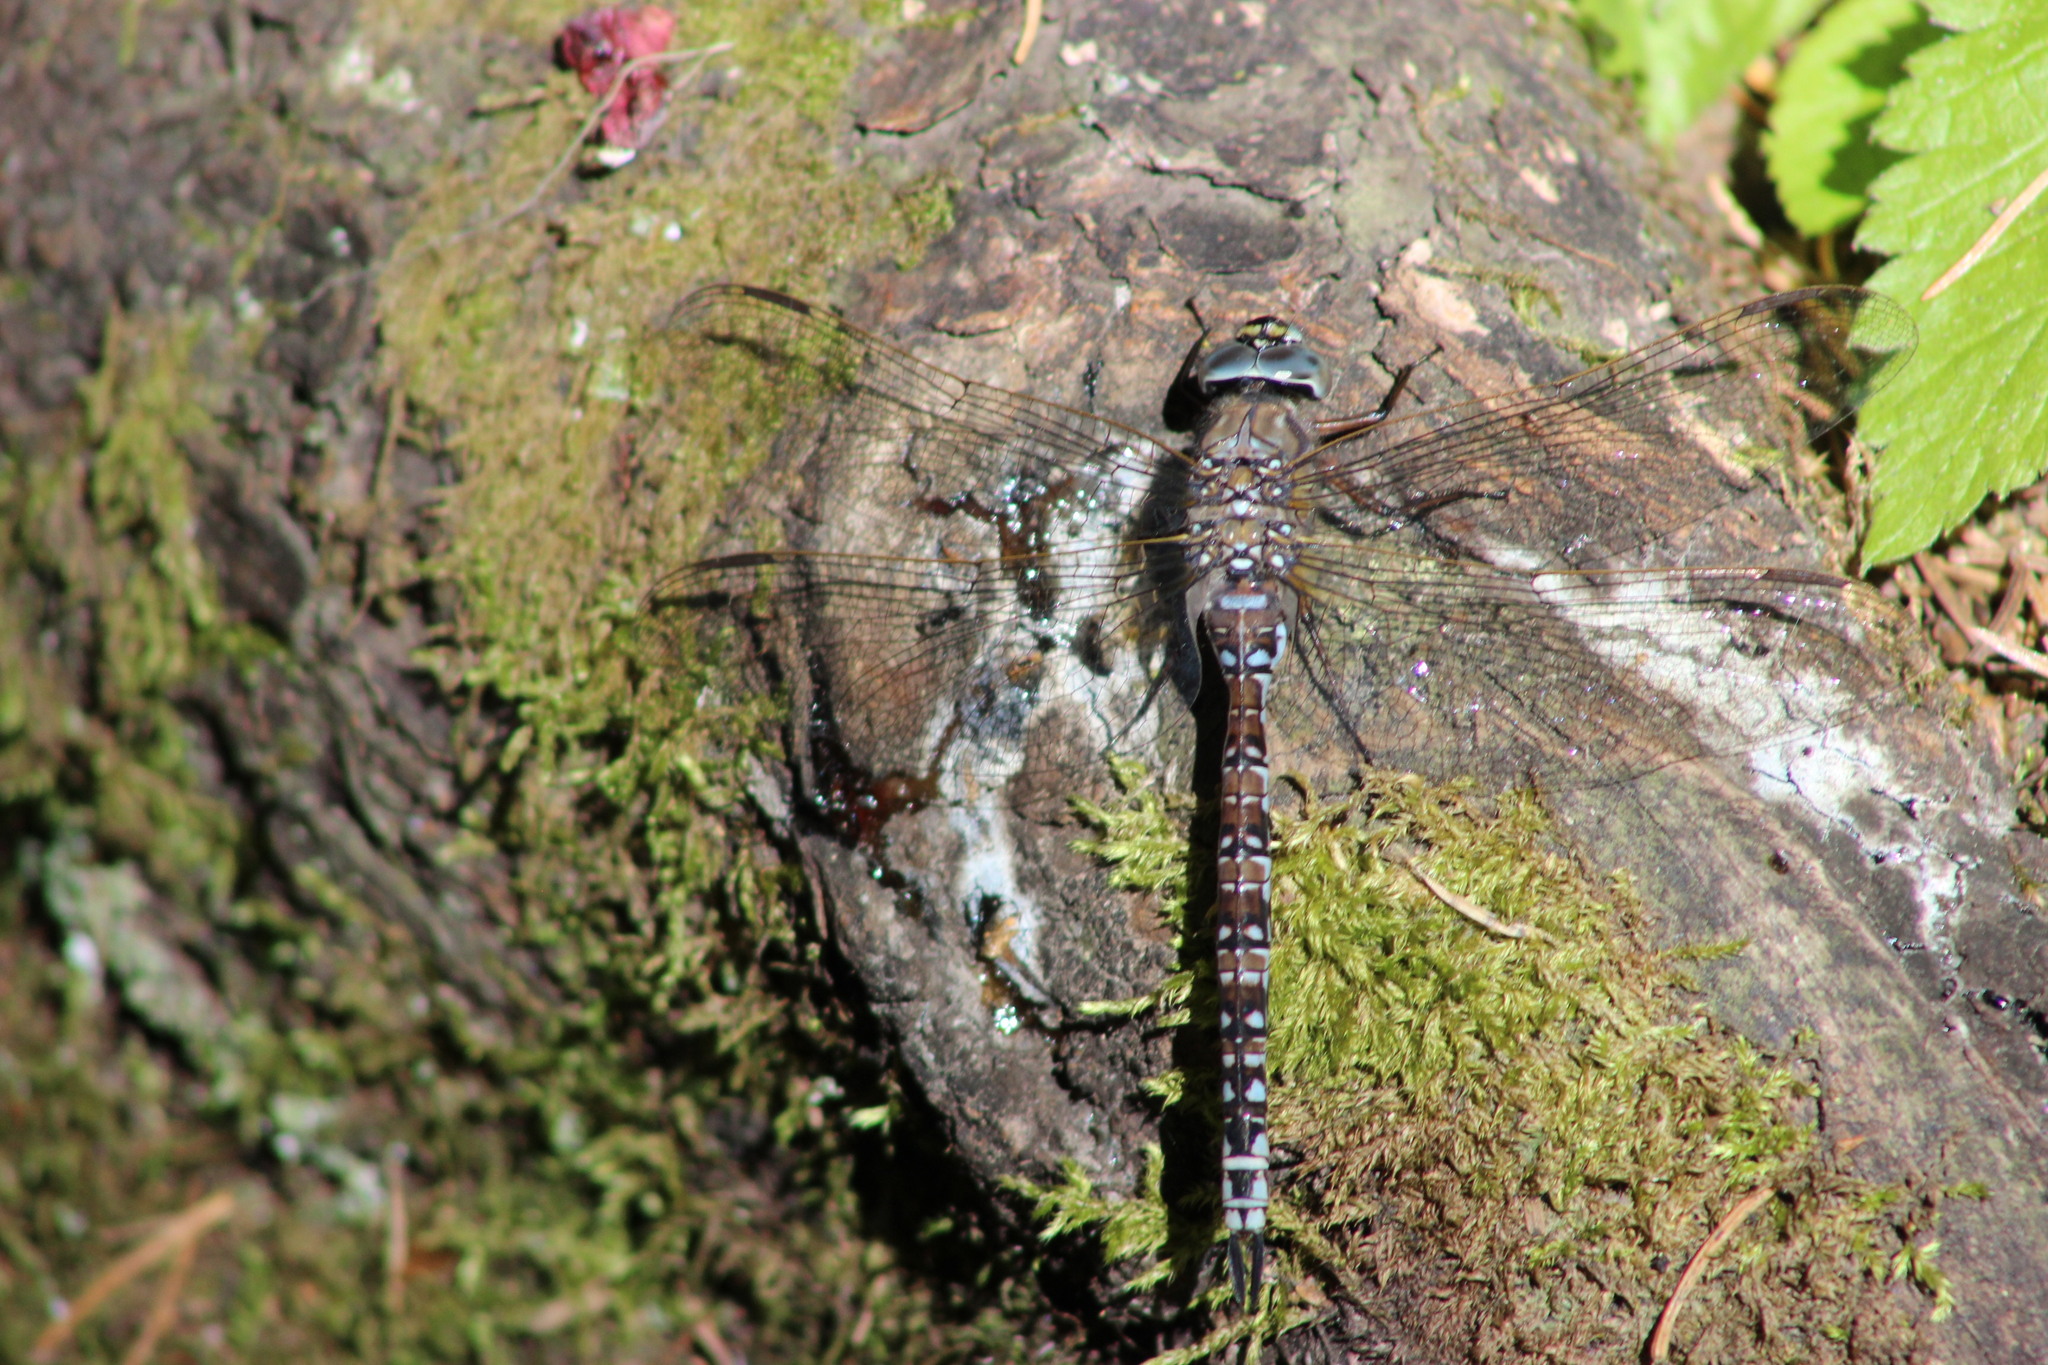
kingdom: Animalia
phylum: Arthropoda
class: Insecta
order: Odonata
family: Aeshnidae
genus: Aeshna
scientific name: Aeshna caerulea
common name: Azure hawker
